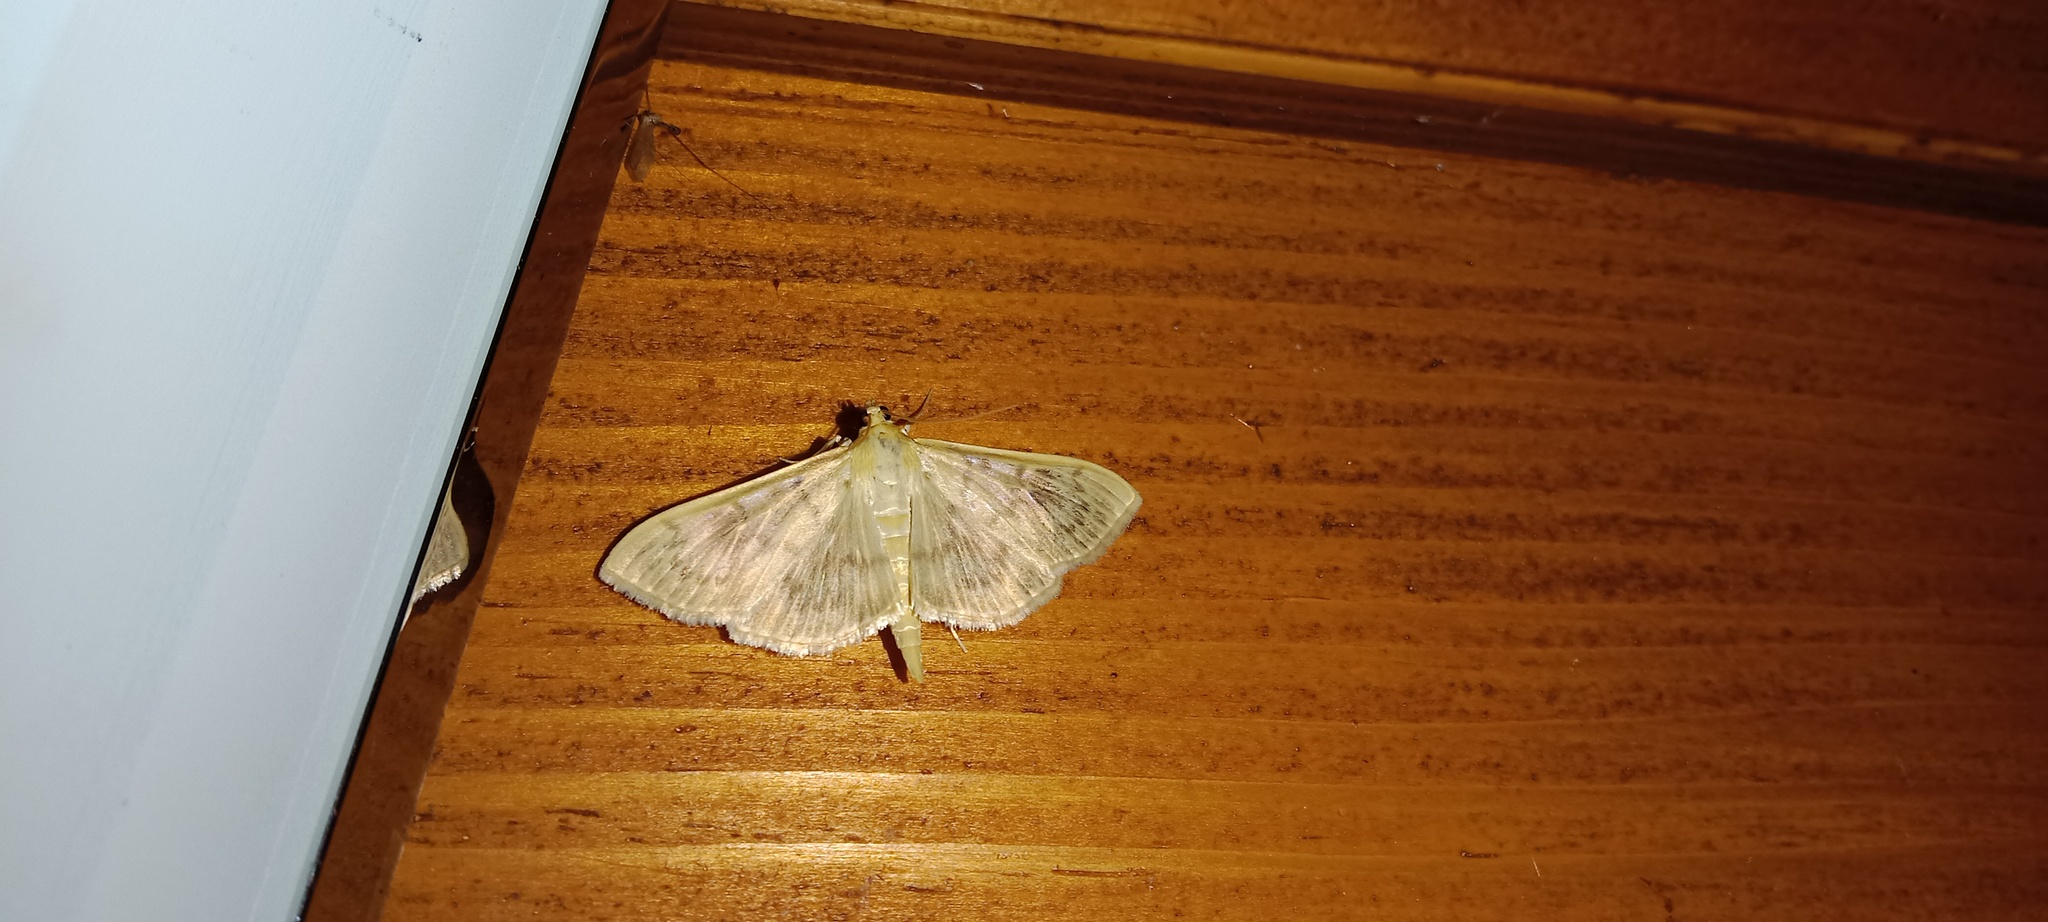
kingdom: Animalia
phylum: Arthropoda
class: Insecta
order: Lepidoptera
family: Crambidae
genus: Patania
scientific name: Patania ruralis
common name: Mother of pearl
